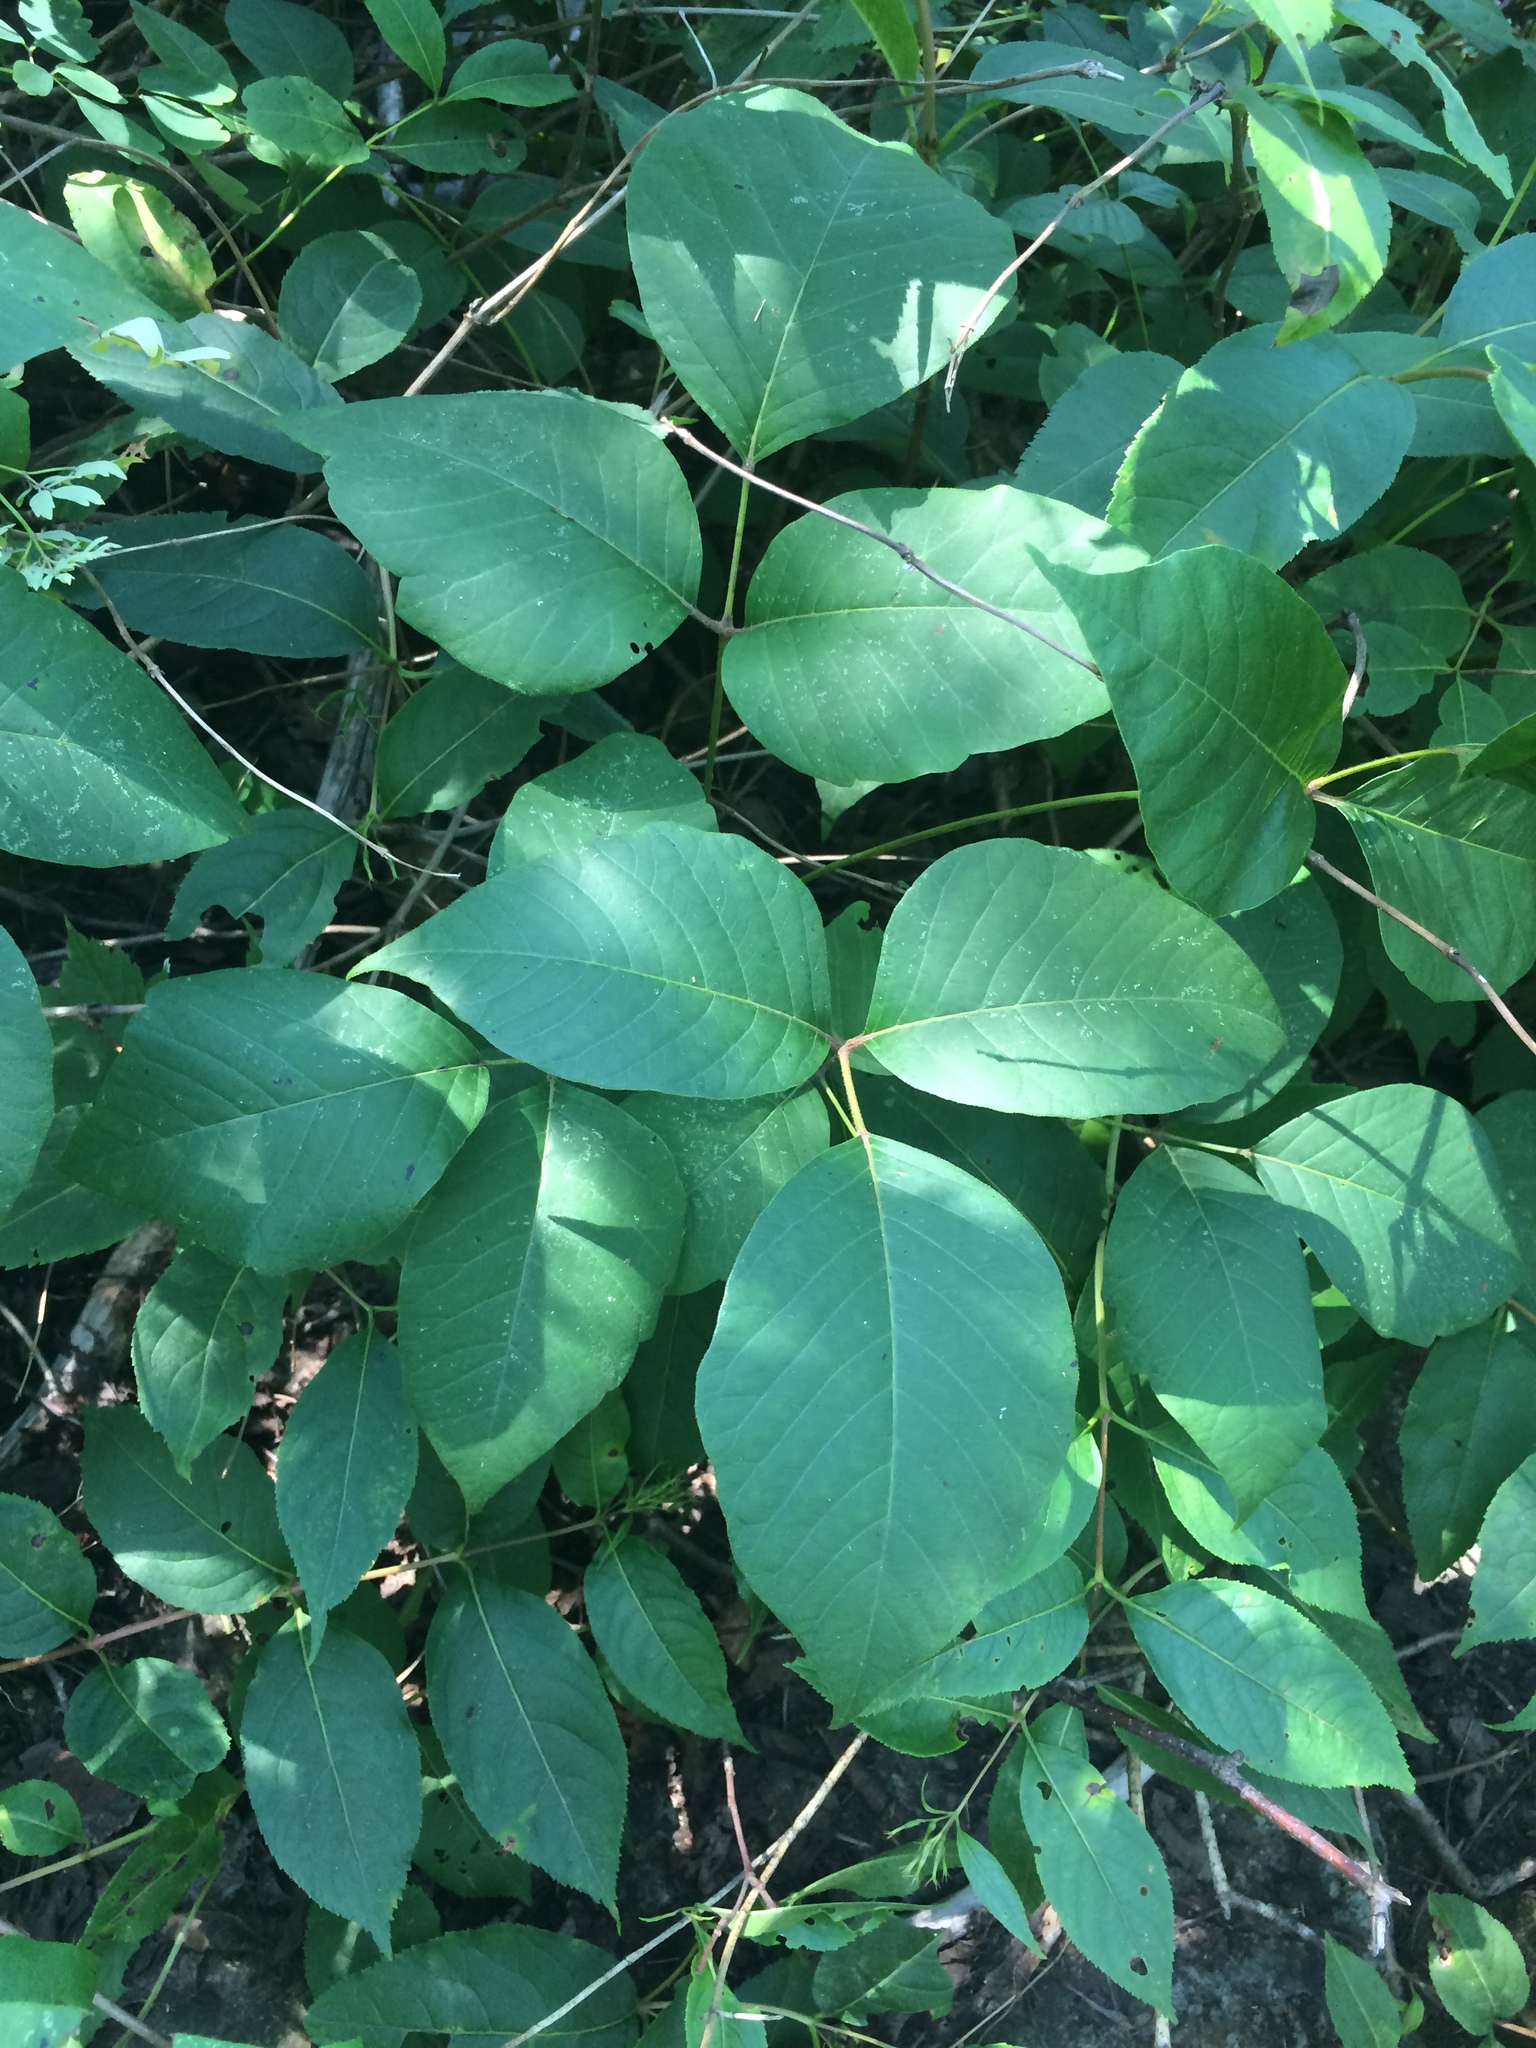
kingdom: Plantae
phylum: Tracheophyta
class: Magnoliopsida
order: Sapindales
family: Anacardiaceae
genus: Toxicodendron
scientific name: Toxicodendron rydbergii
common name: Rydberg's poison-ivy
